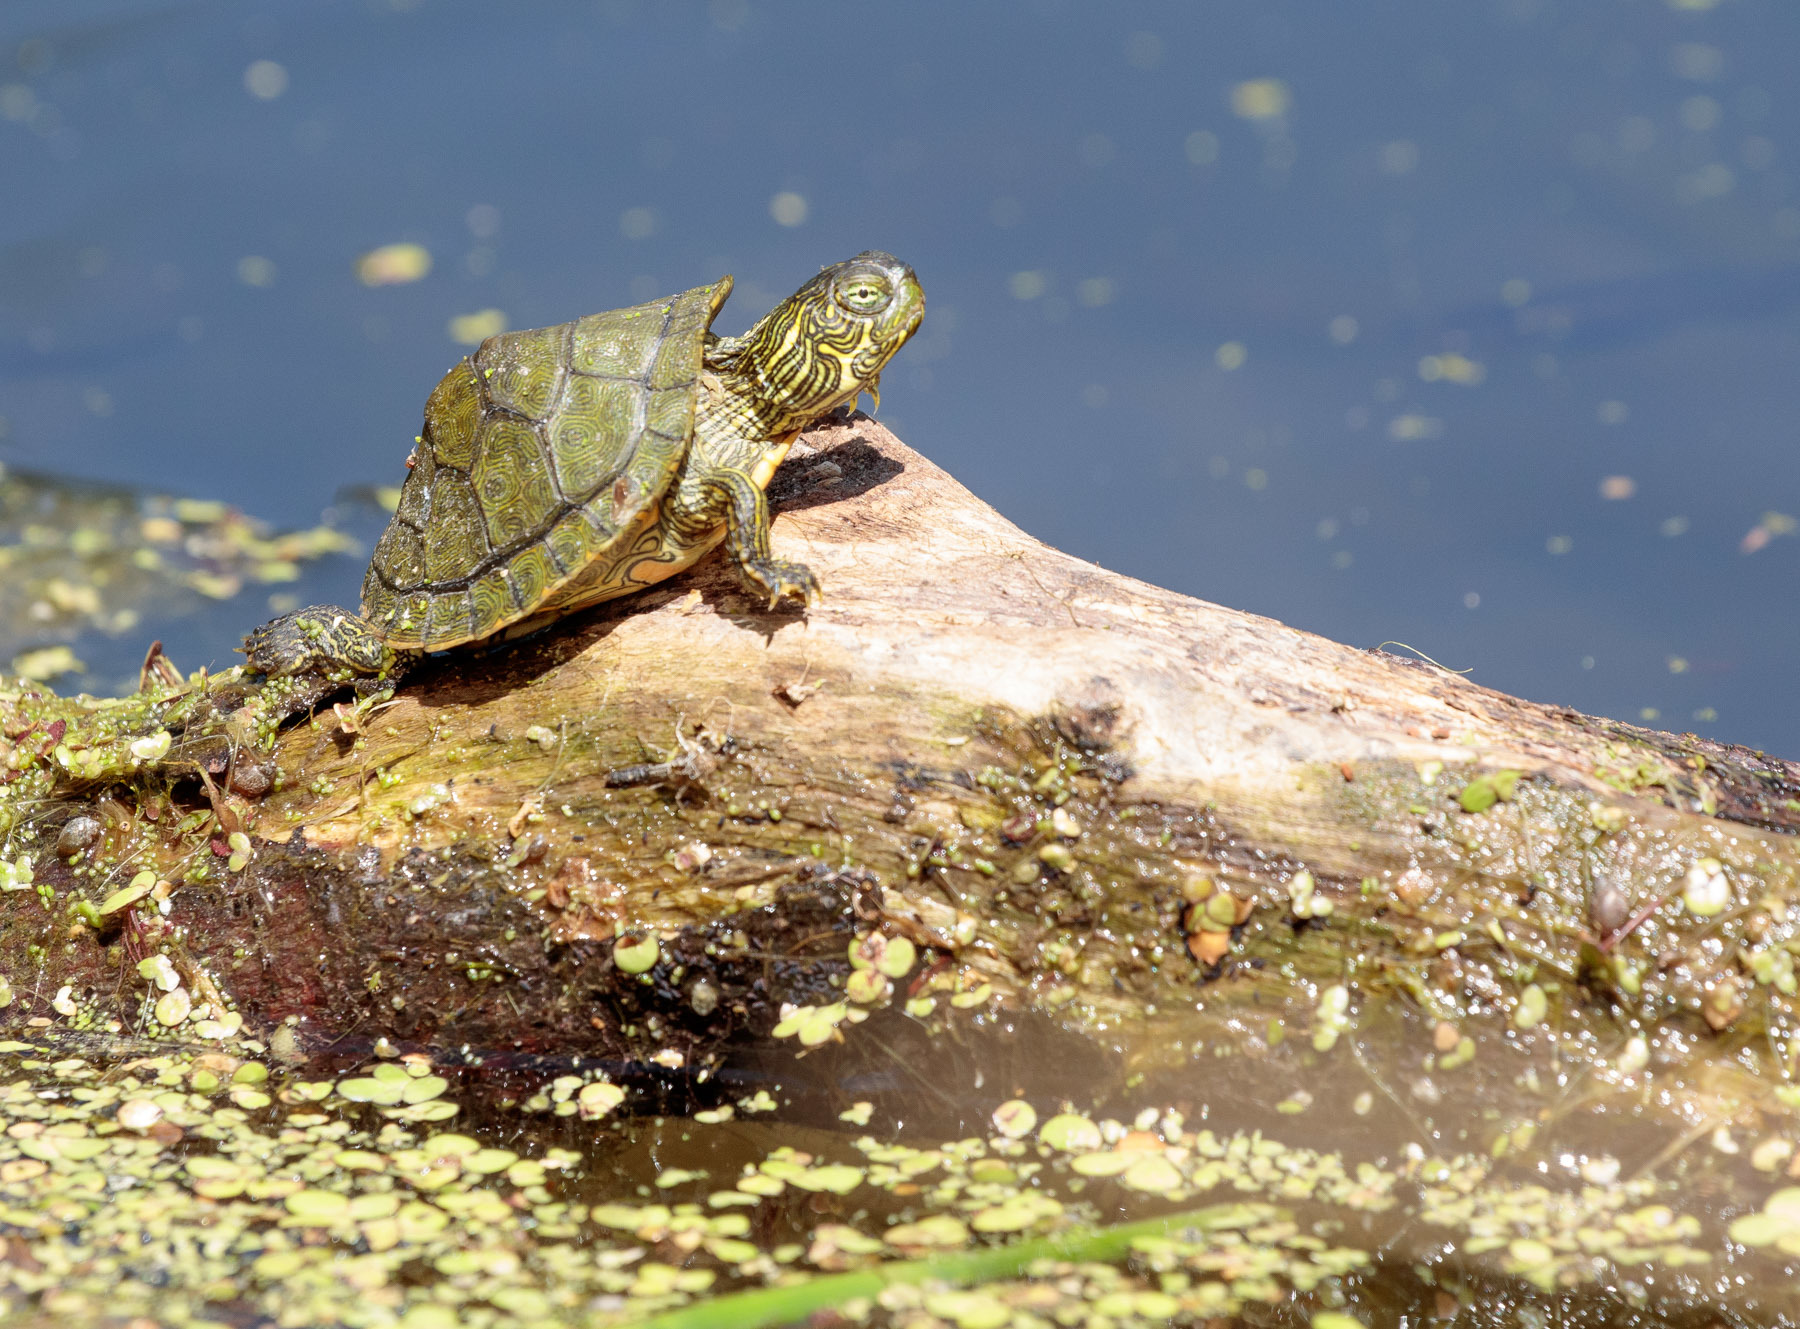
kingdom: Animalia
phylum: Chordata
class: Testudines
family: Emydidae
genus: Pseudemys
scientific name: Pseudemys texana
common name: Texas river cooter
